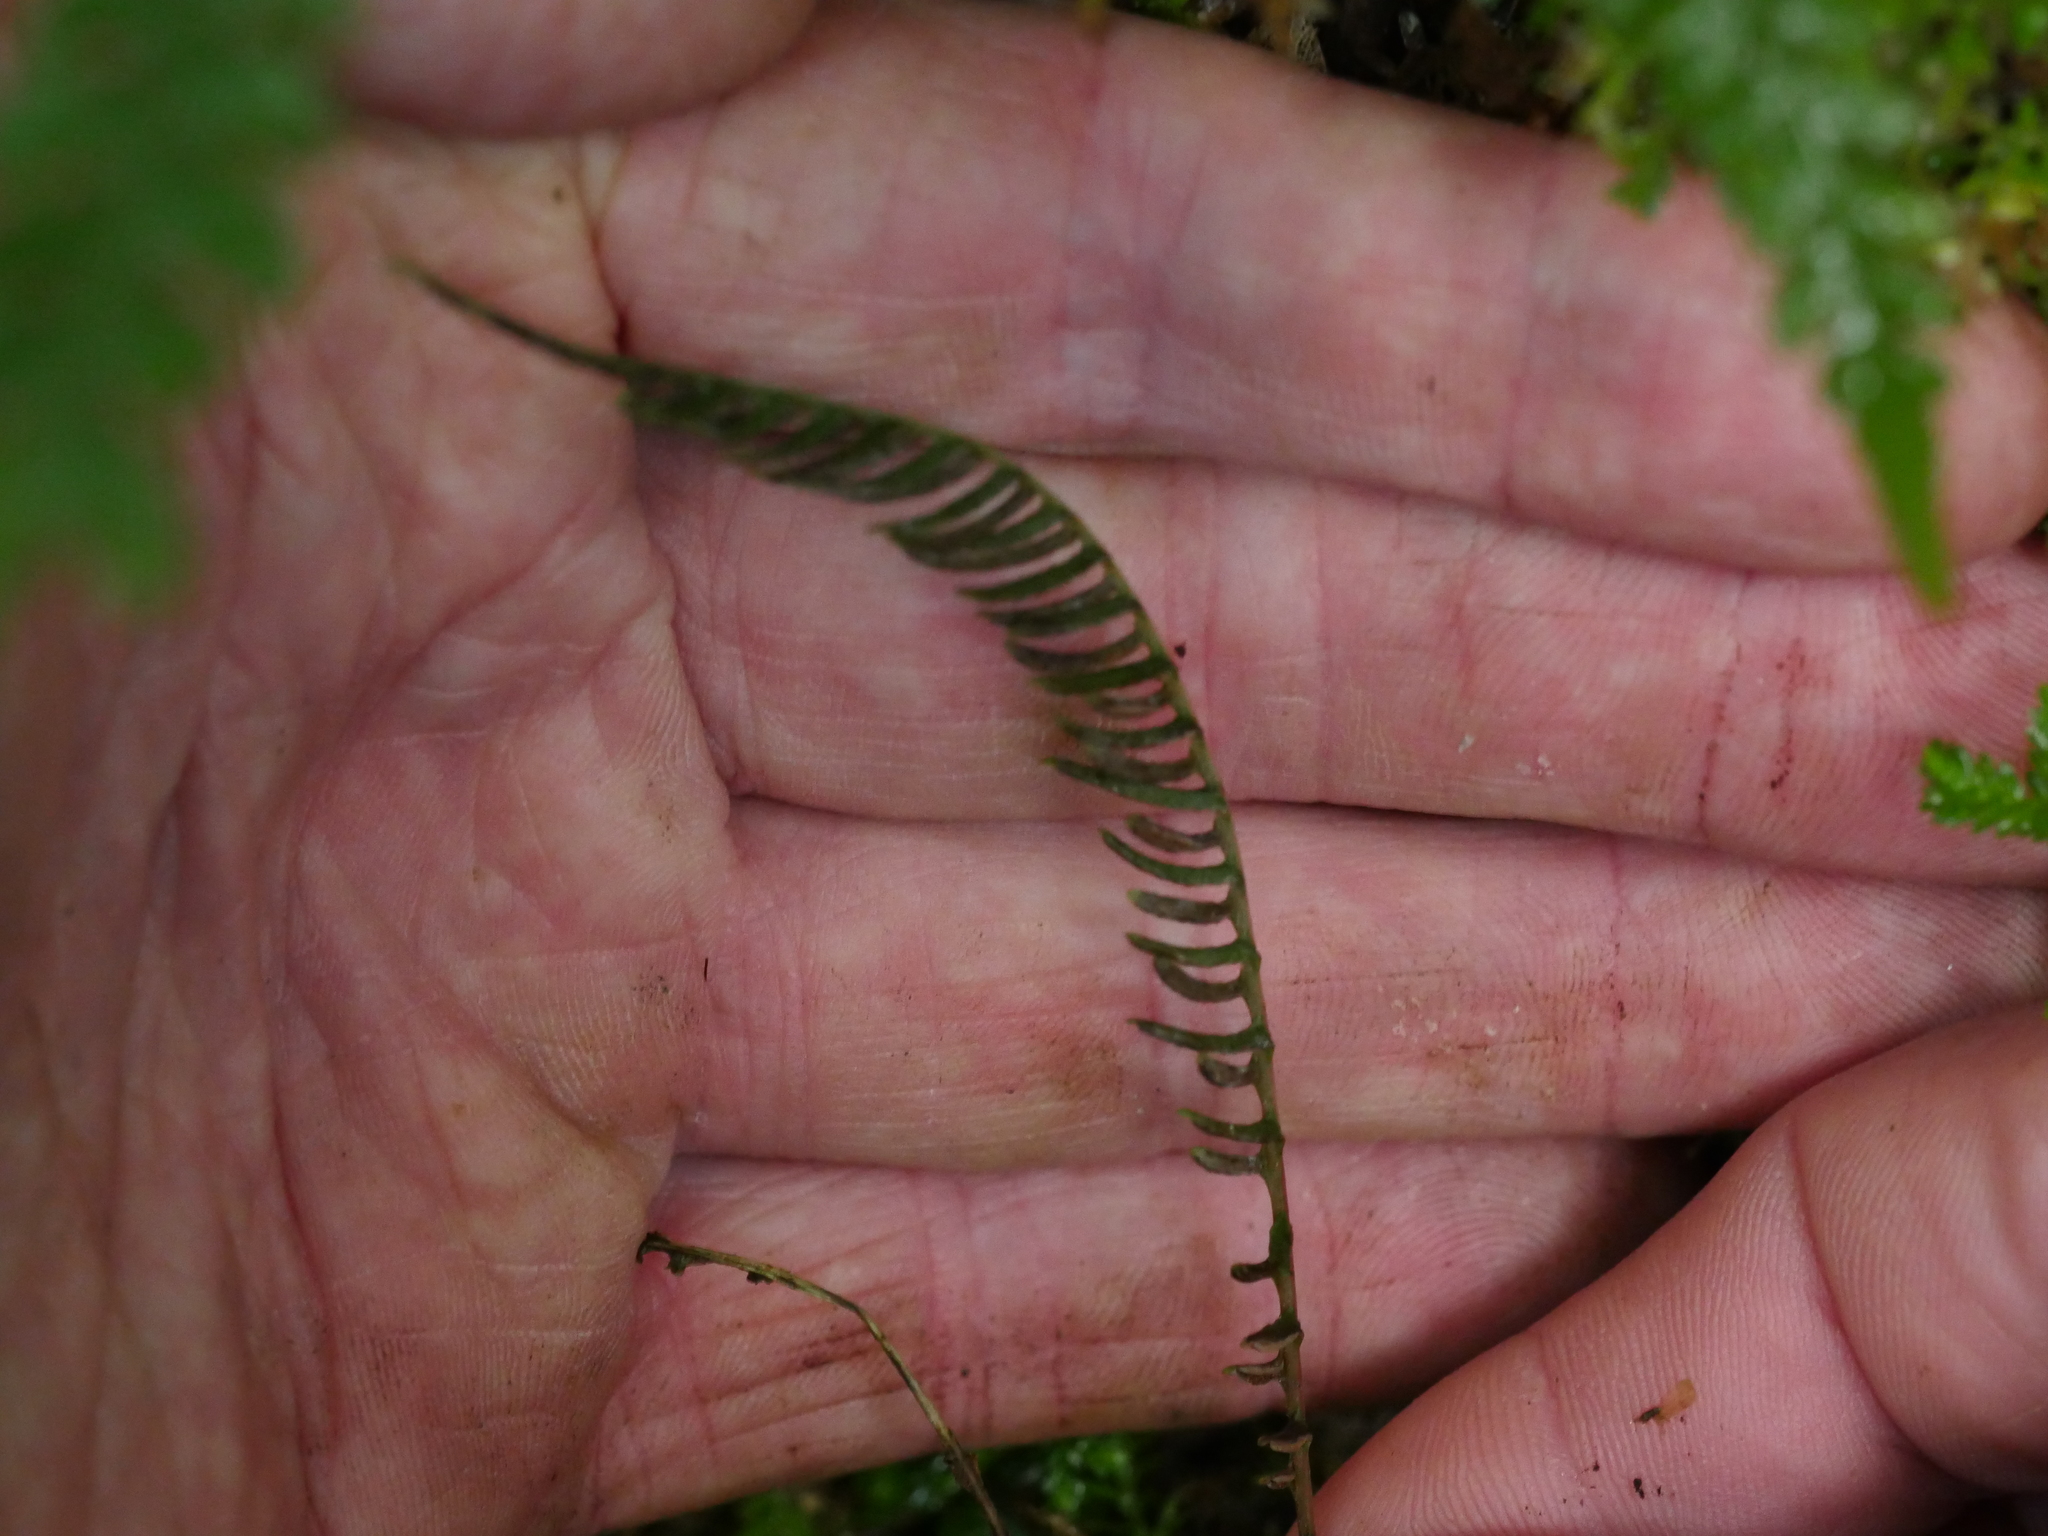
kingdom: Plantae
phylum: Tracheophyta
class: Polypodiopsida
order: Polypodiales
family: Blechnaceae
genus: Austroblechnum
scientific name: Austroblechnum lanceolatum
